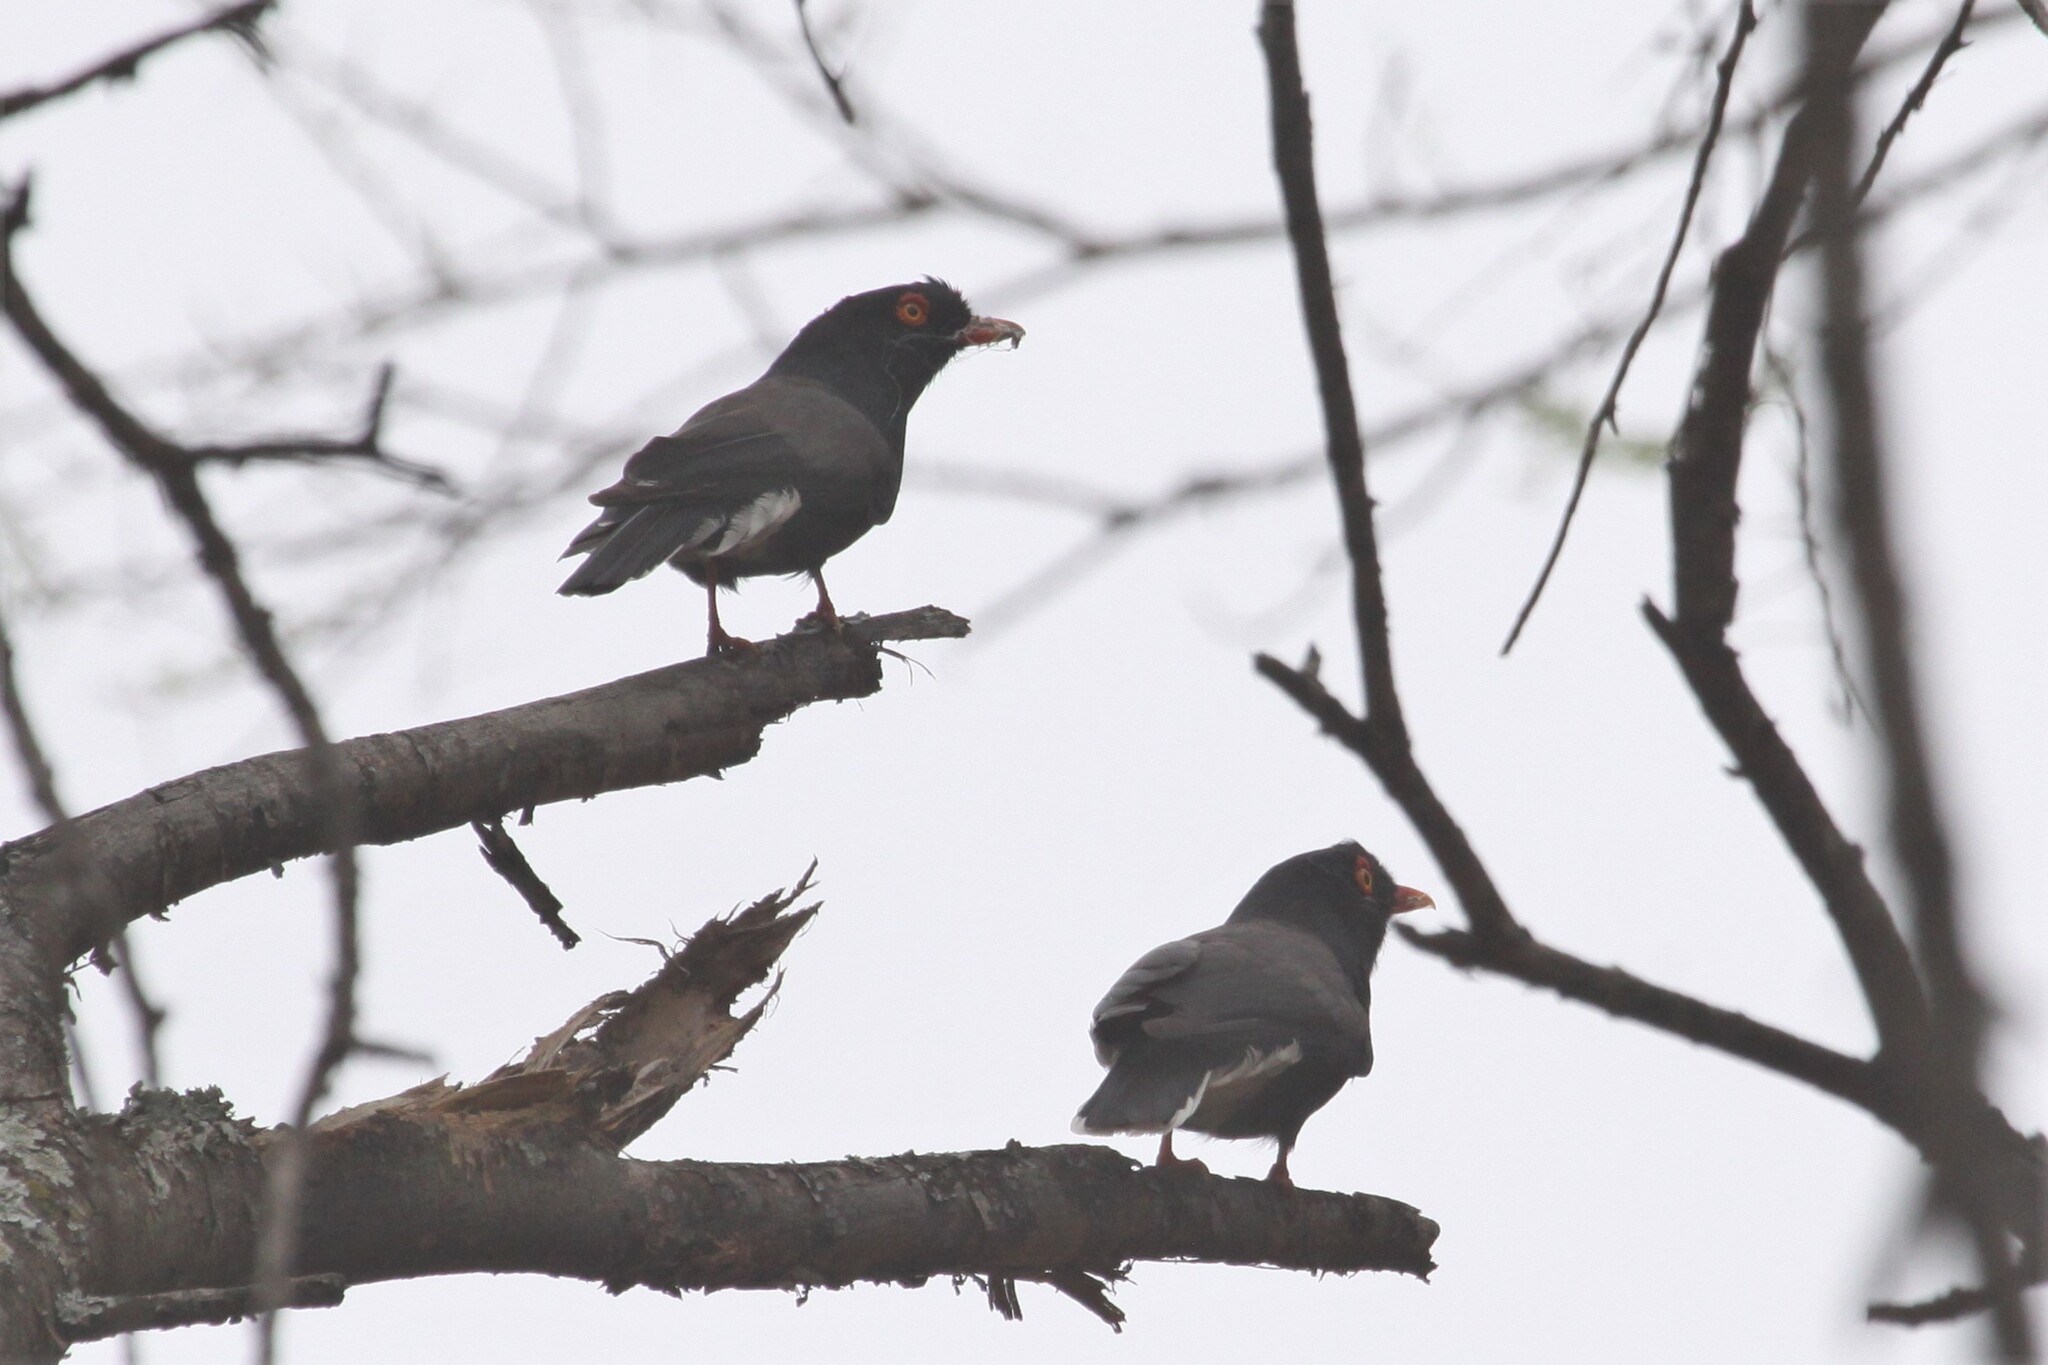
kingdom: Animalia
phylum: Chordata
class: Aves
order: Passeriformes
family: Prionopidae
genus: Prionops
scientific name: Prionops retzii
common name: Retz's helmetshrike
